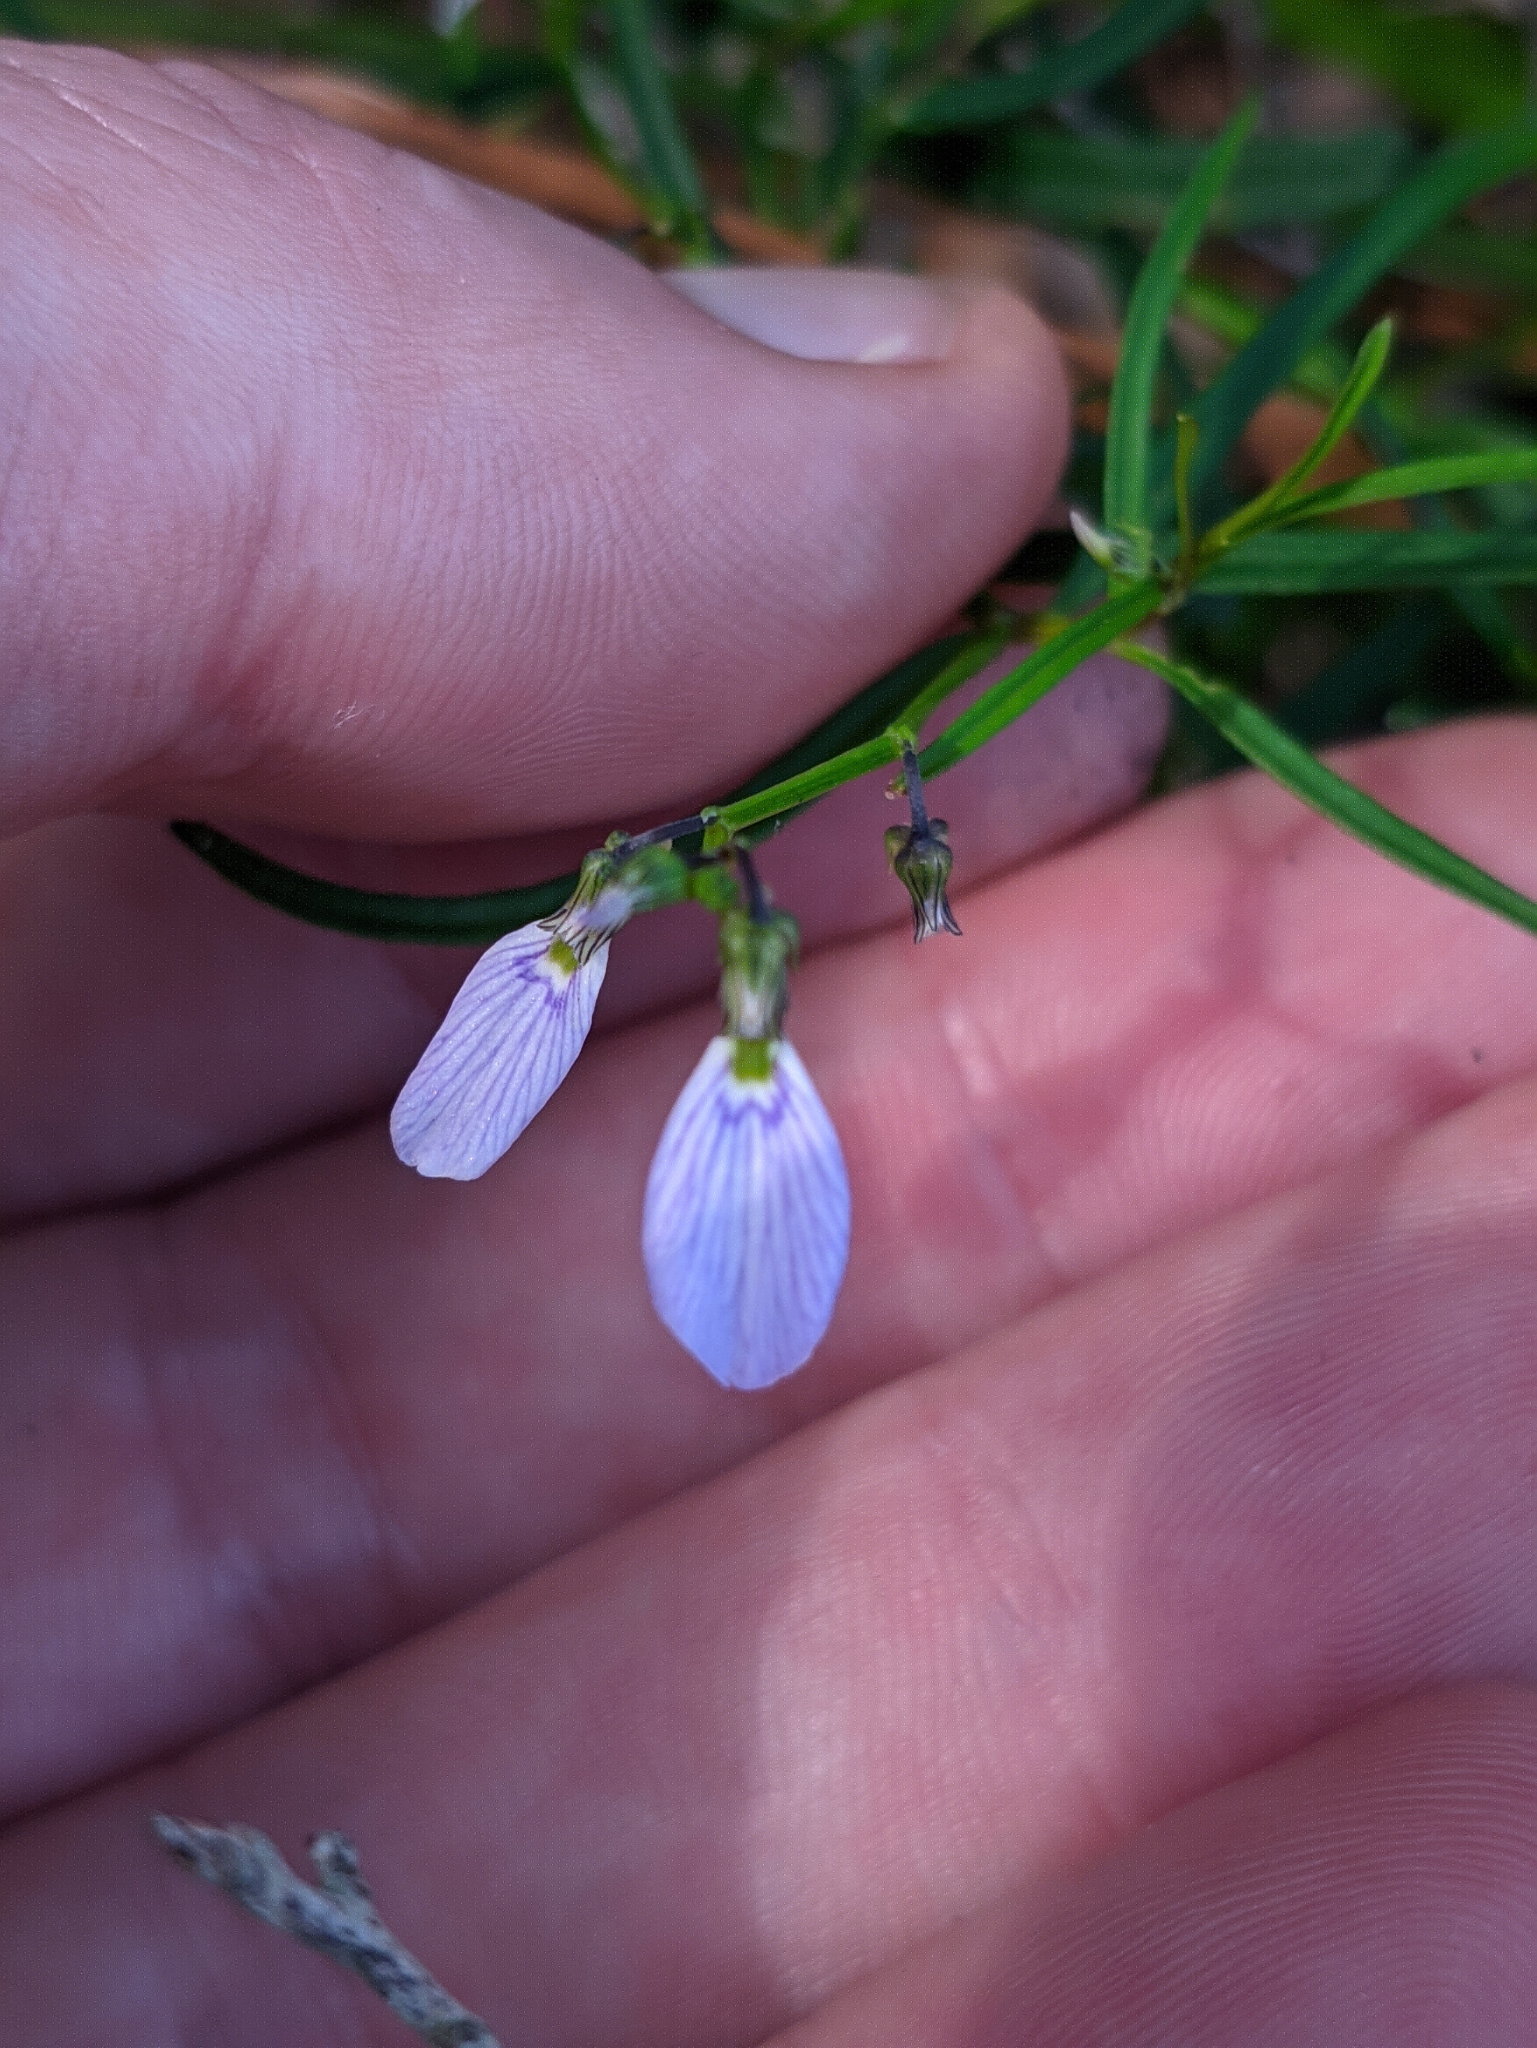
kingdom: Plantae
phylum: Tracheophyta
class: Magnoliopsida
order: Malpighiales
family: Violaceae
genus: Pigea
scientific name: Pigea monopetala
